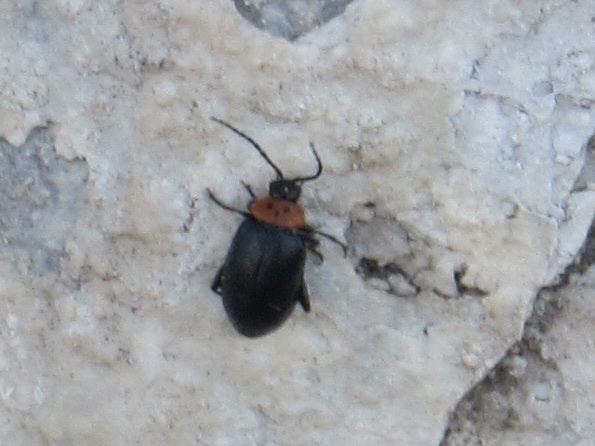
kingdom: Animalia
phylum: Arthropoda
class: Insecta
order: Coleoptera
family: Chrysomelidae
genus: Disonycha
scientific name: Disonycha triangularis
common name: Three-spotted flea beetle
